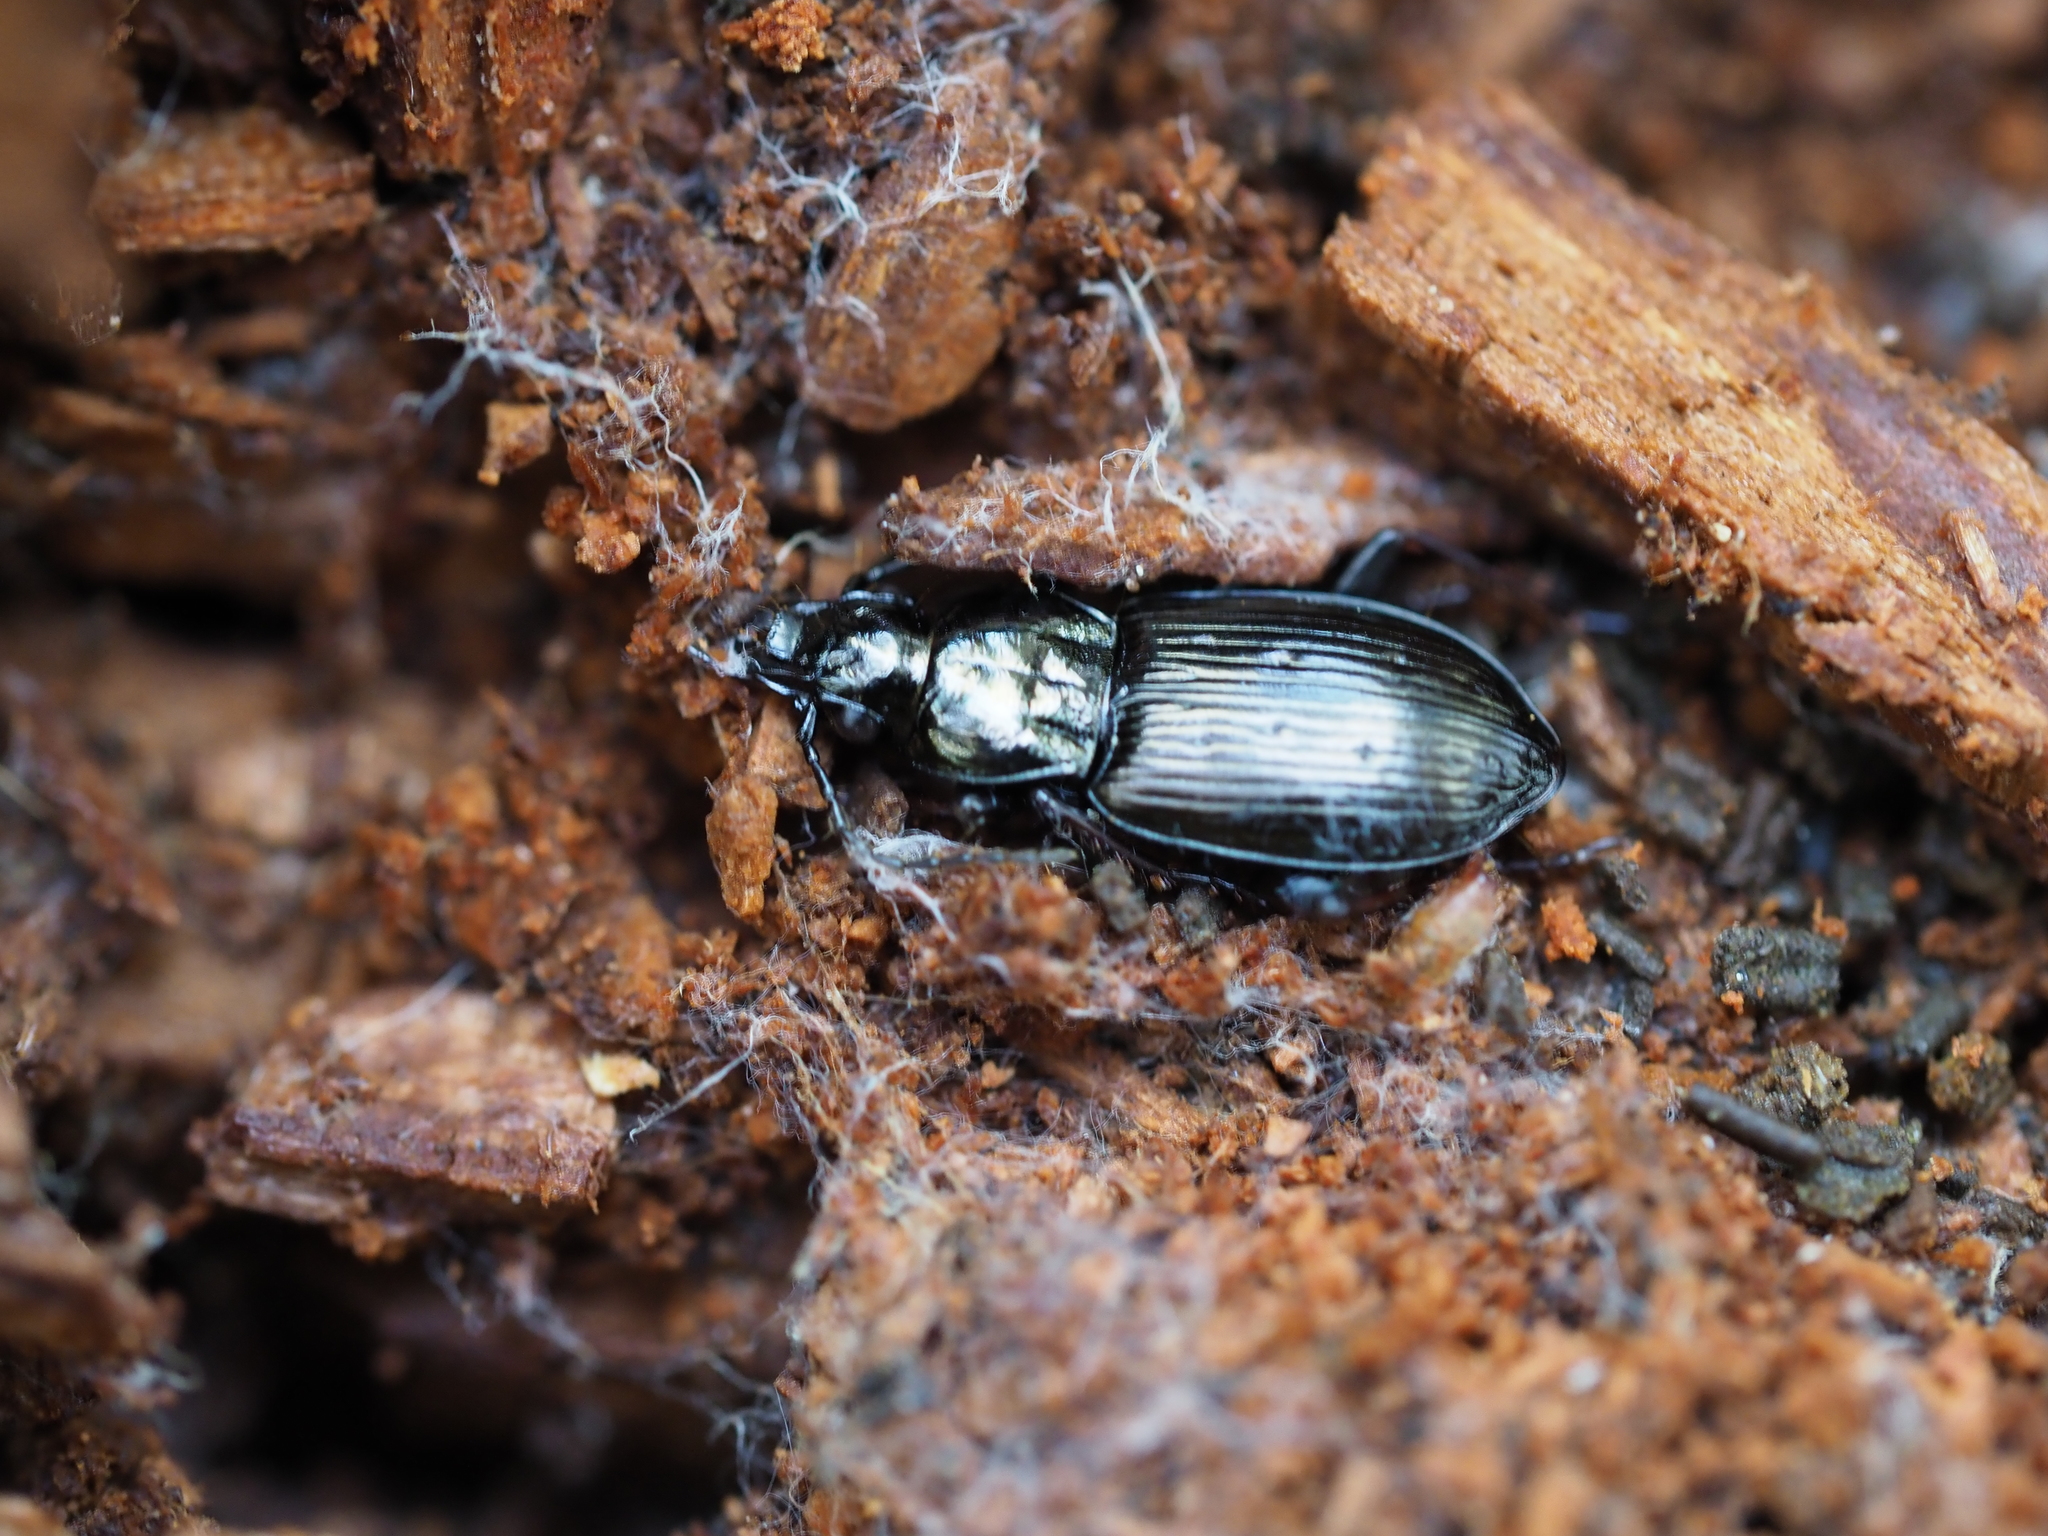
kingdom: Animalia
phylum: Arthropoda
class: Insecta
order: Coleoptera
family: Carabidae
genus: Pterostichus
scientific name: Pterostichus oblongopunctatus
